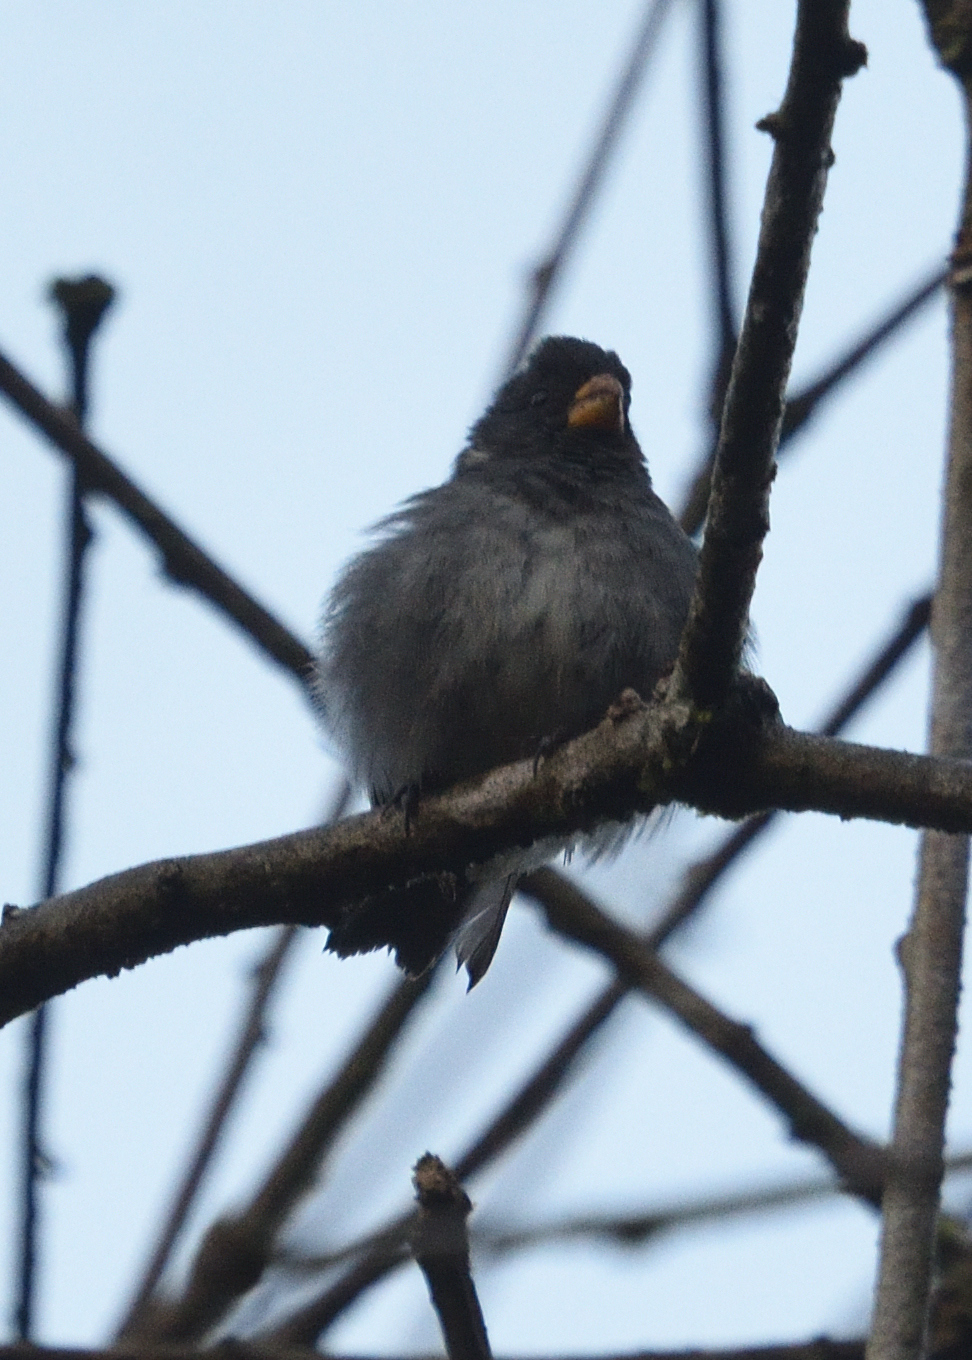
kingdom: Animalia
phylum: Chordata
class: Aves
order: Passeriformes
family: Thraupidae
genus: Sporophila
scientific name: Sporophila intermedia
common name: Grey seedeater
